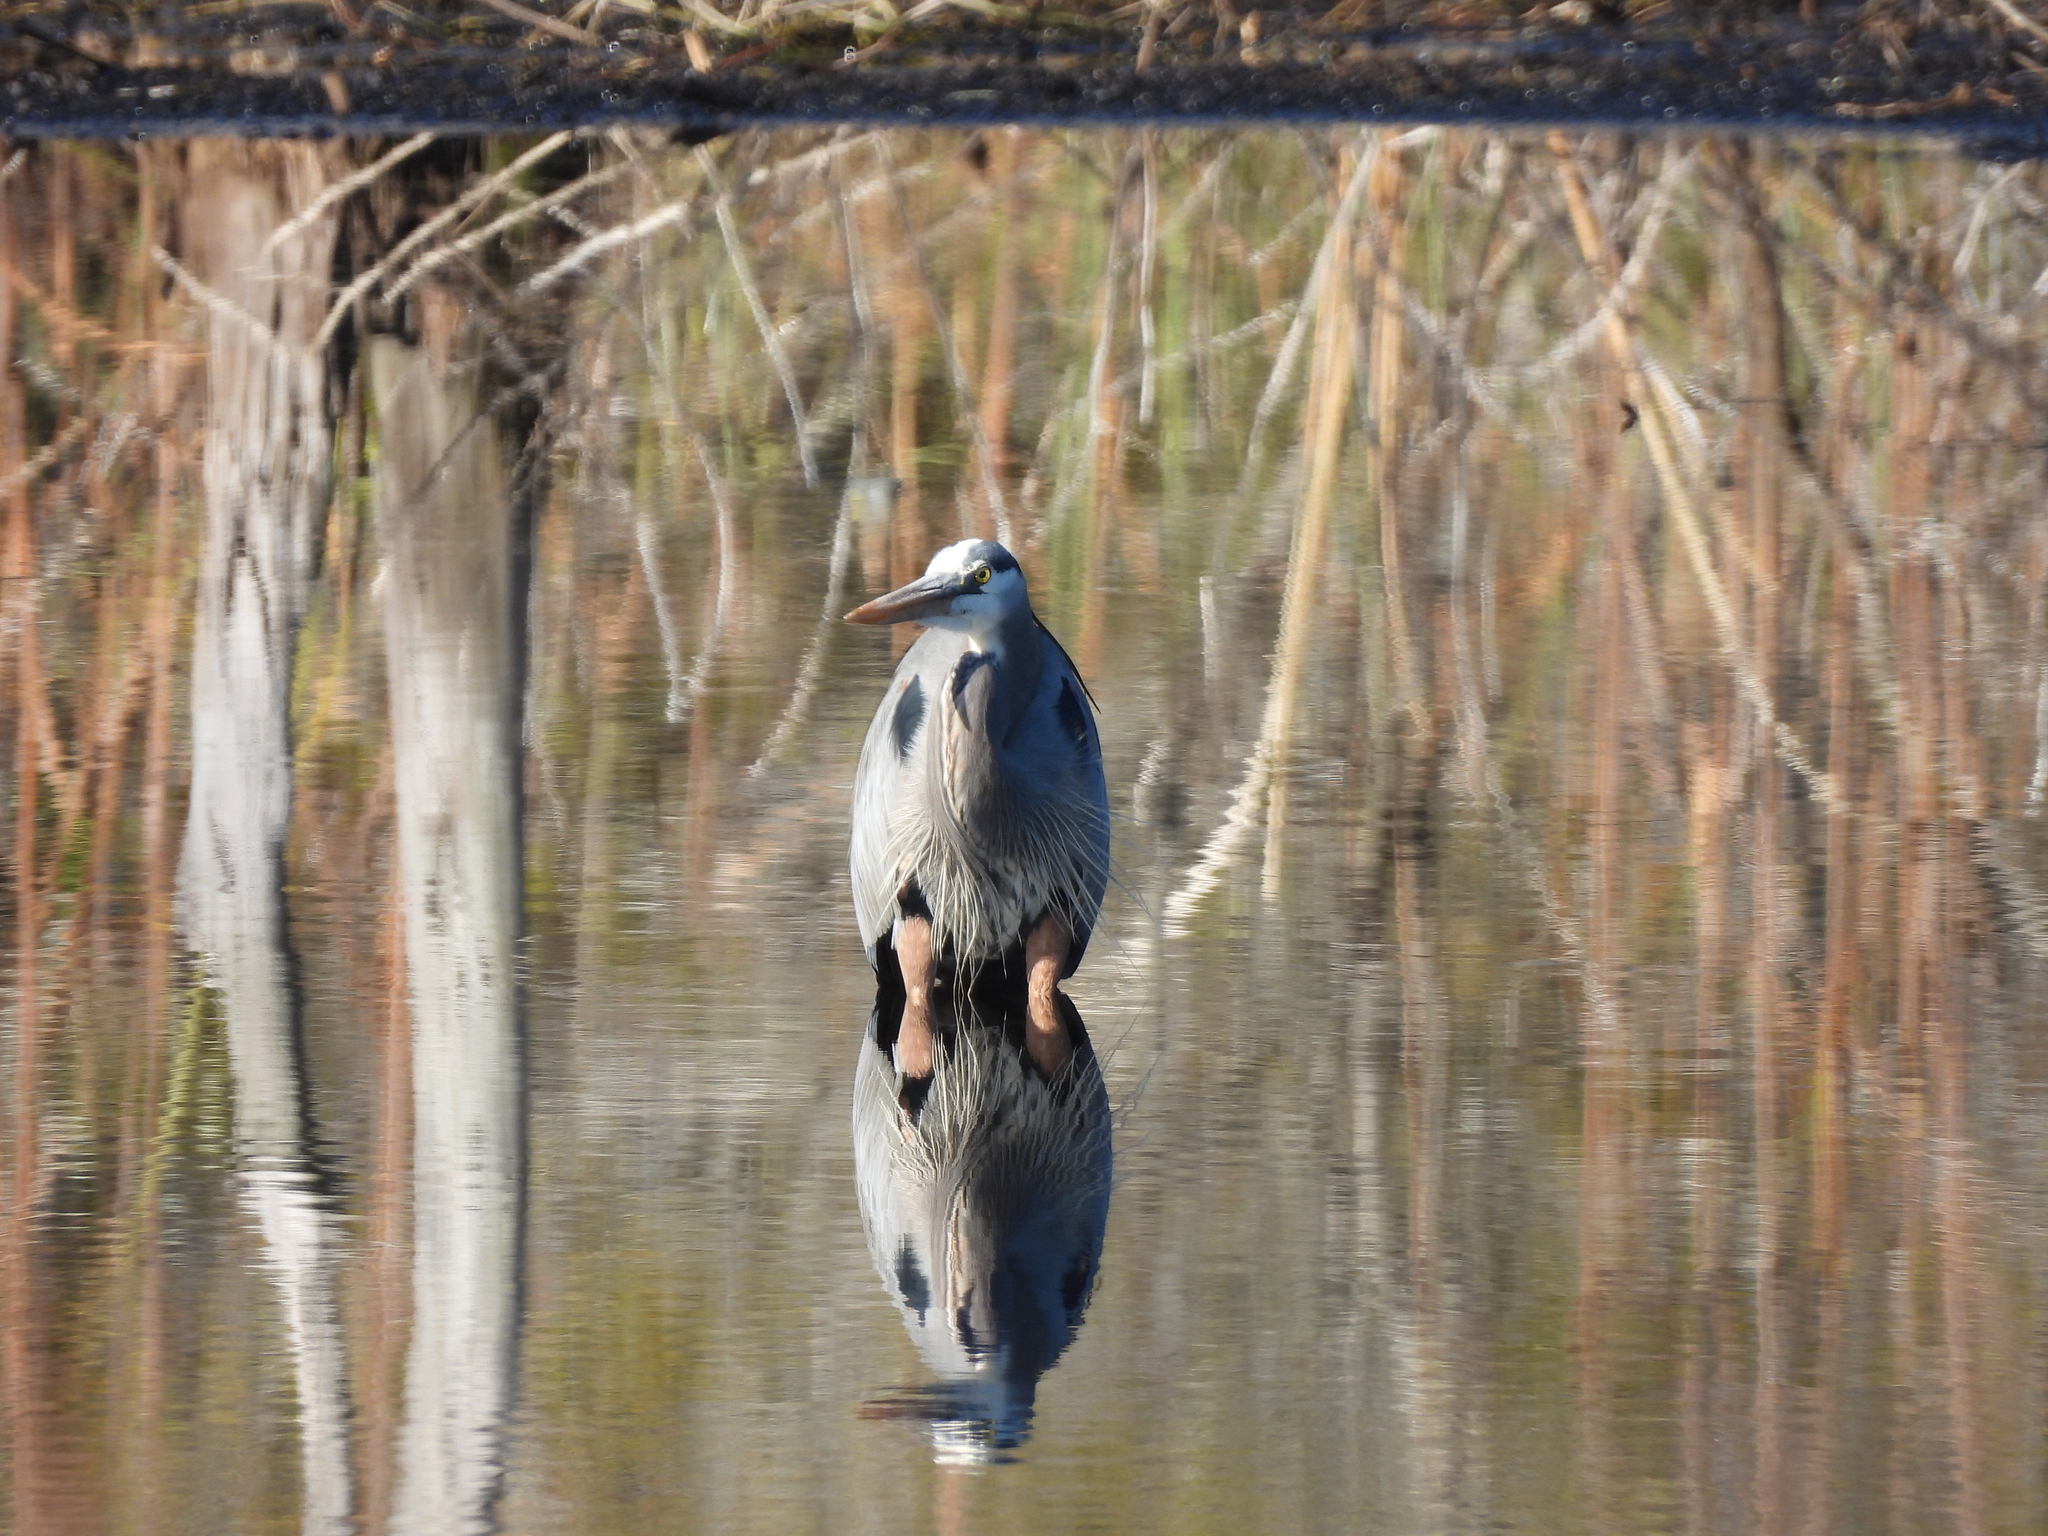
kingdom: Animalia
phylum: Chordata
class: Aves
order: Pelecaniformes
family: Ardeidae
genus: Ardea
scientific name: Ardea herodias
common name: Great blue heron
